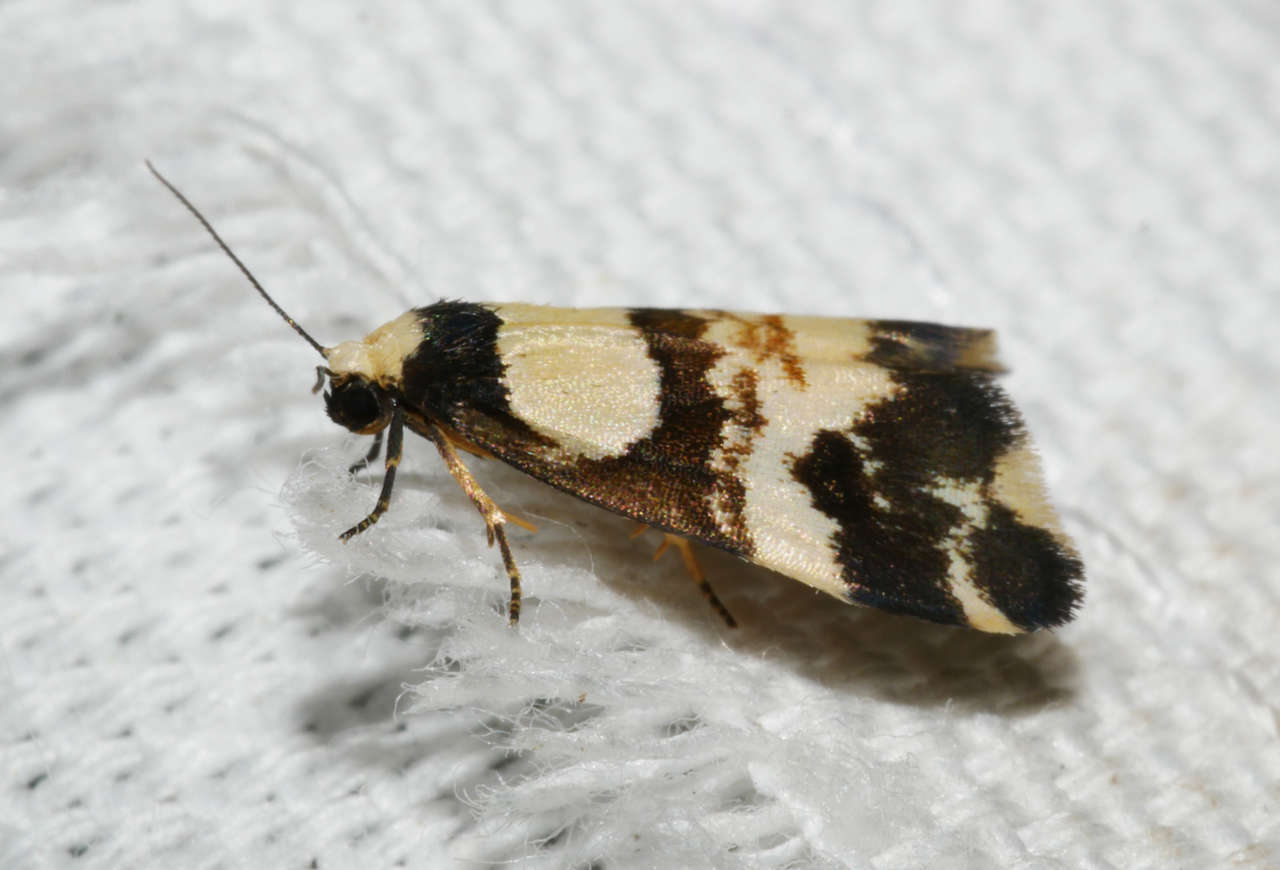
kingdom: Animalia
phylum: Arthropoda
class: Insecta
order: Lepidoptera
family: Erebidae
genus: Thallarcha
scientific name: Thallarcha phalarota
